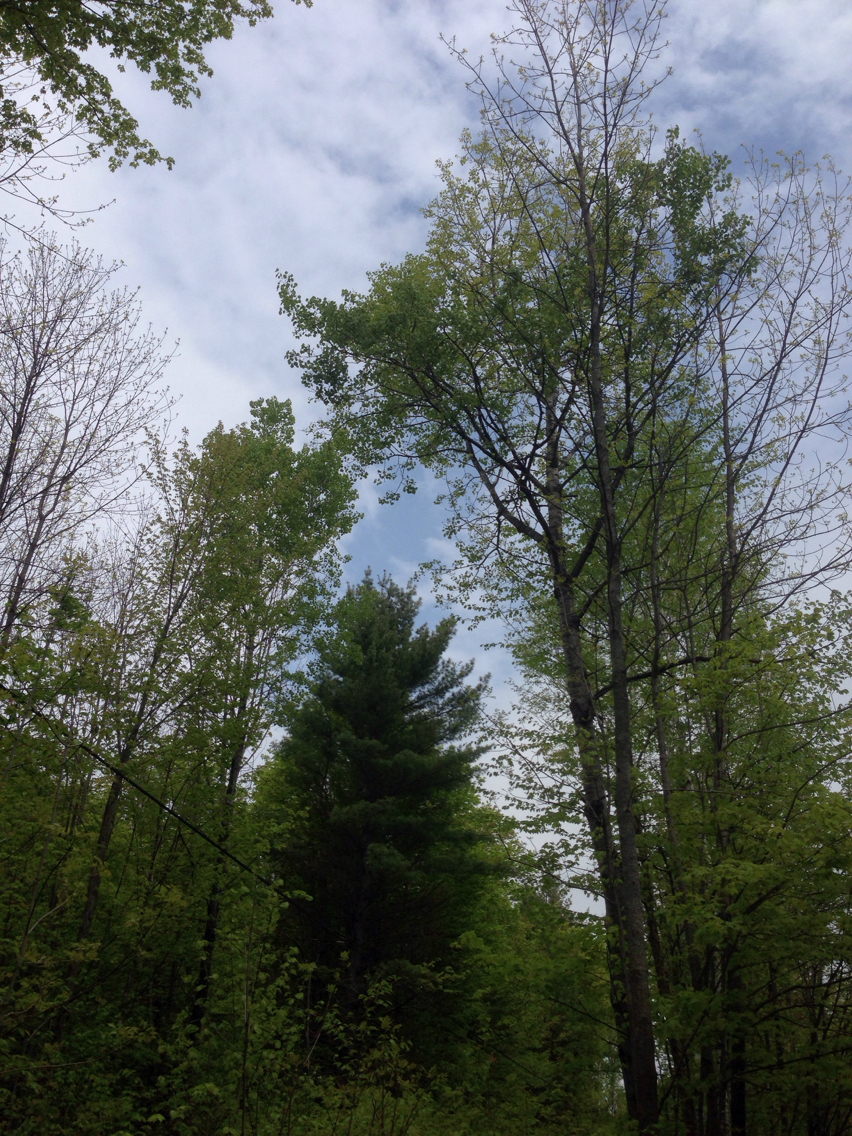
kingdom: Plantae
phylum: Tracheophyta
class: Magnoliopsida
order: Malpighiales
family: Salicaceae
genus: Populus
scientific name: Populus tremuloides
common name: Quaking aspen
